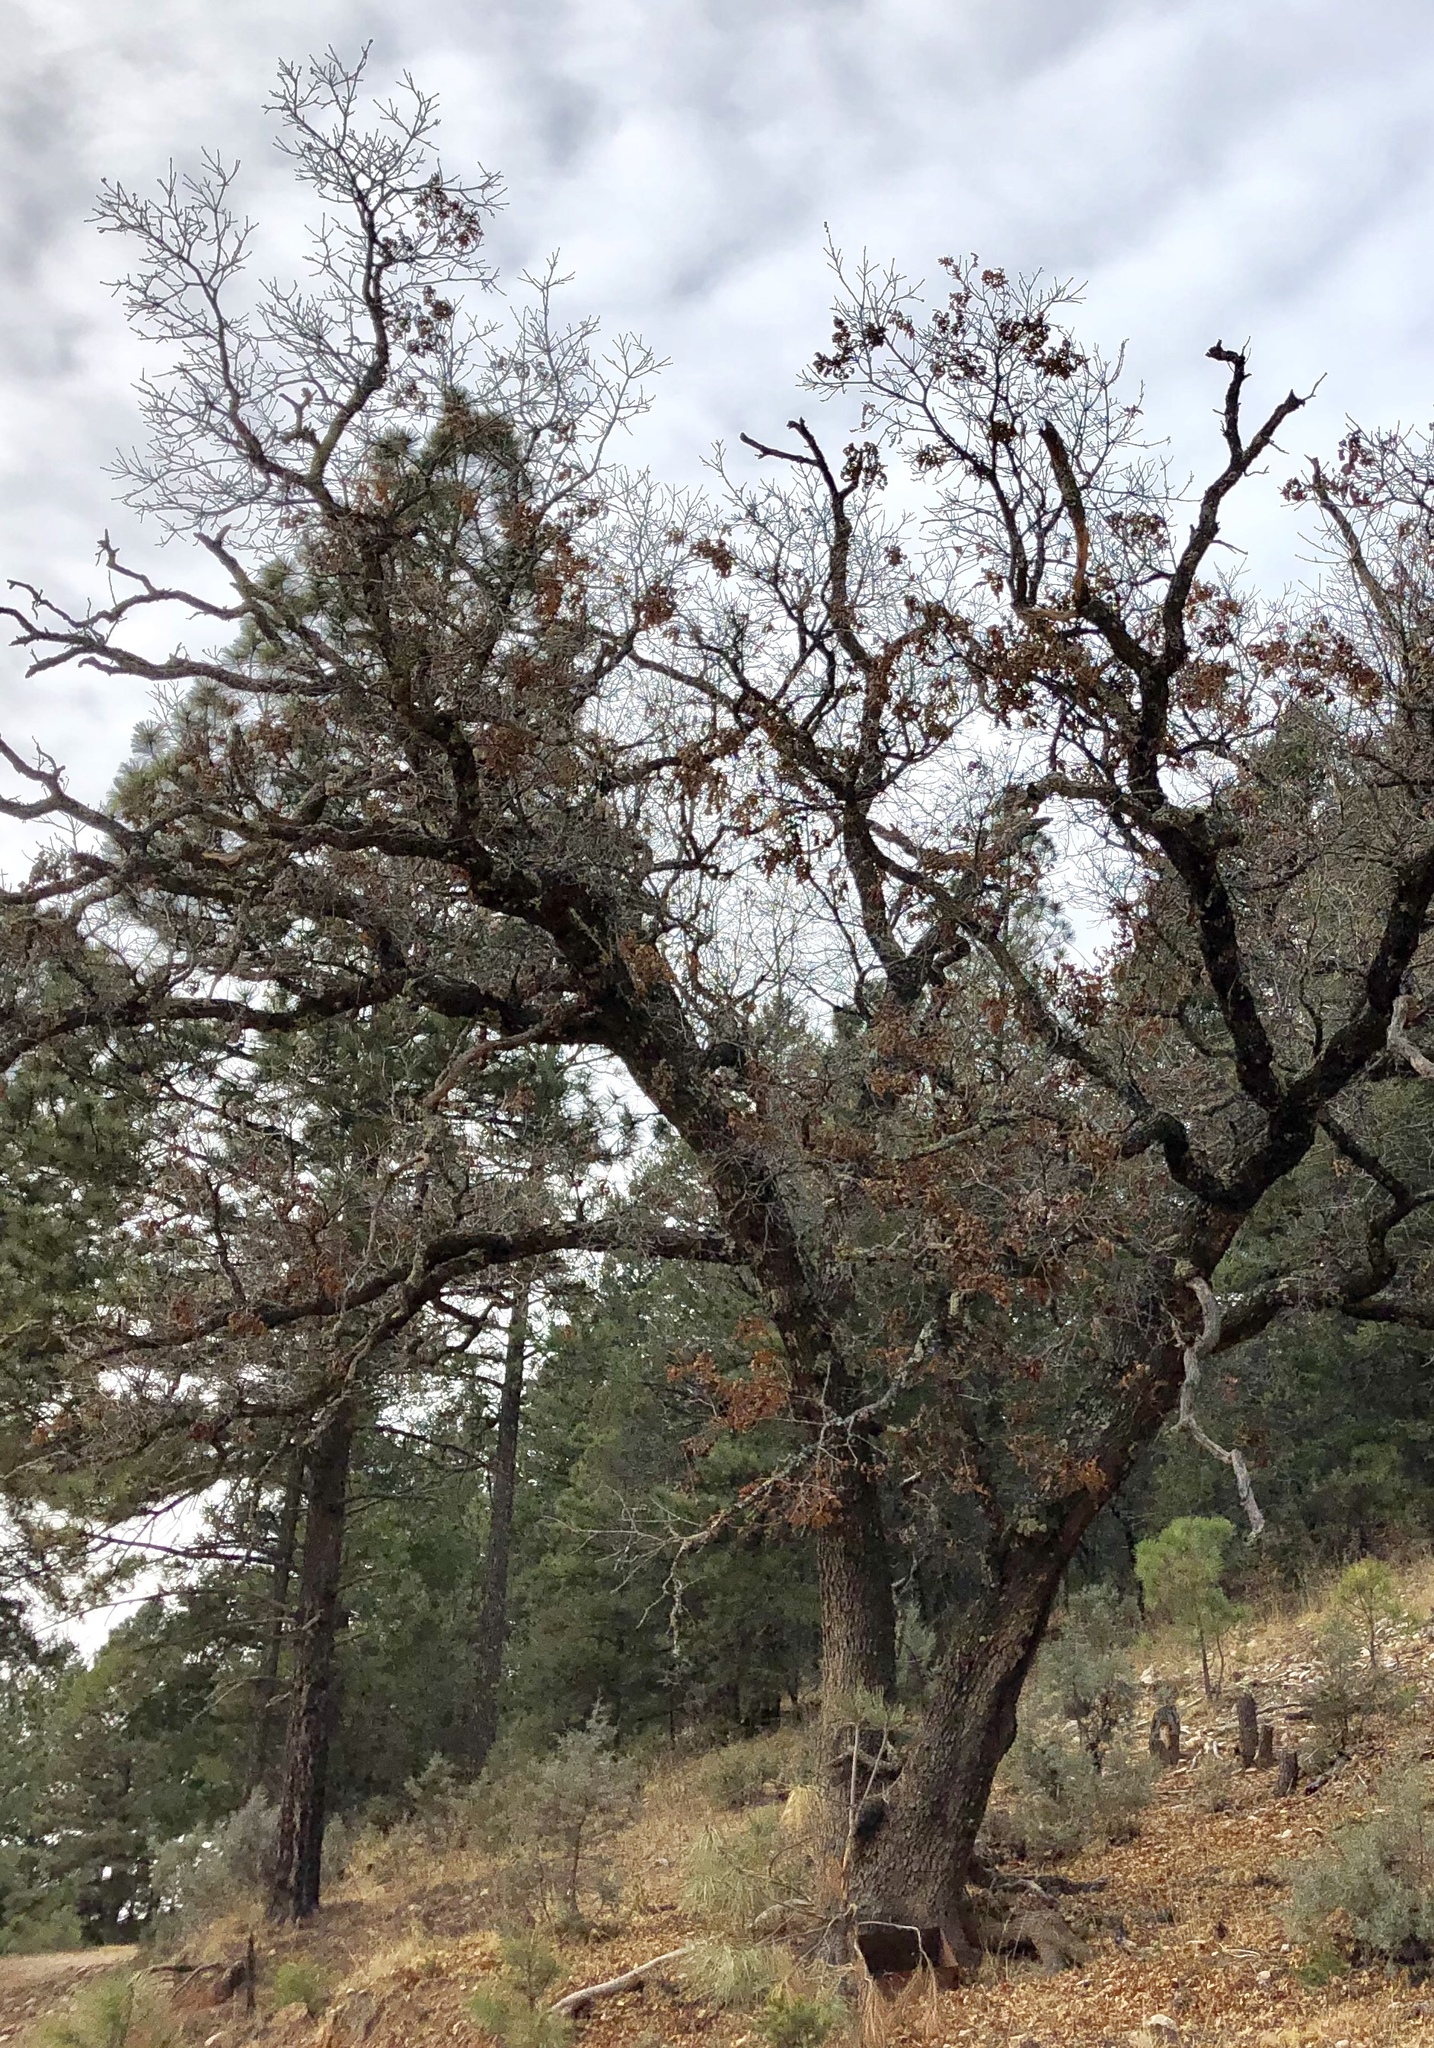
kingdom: Plantae
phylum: Tracheophyta
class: Magnoliopsida
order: Fagales
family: Fagaceae
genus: Quercus
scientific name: Quercus gambelii
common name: Gambel oak
